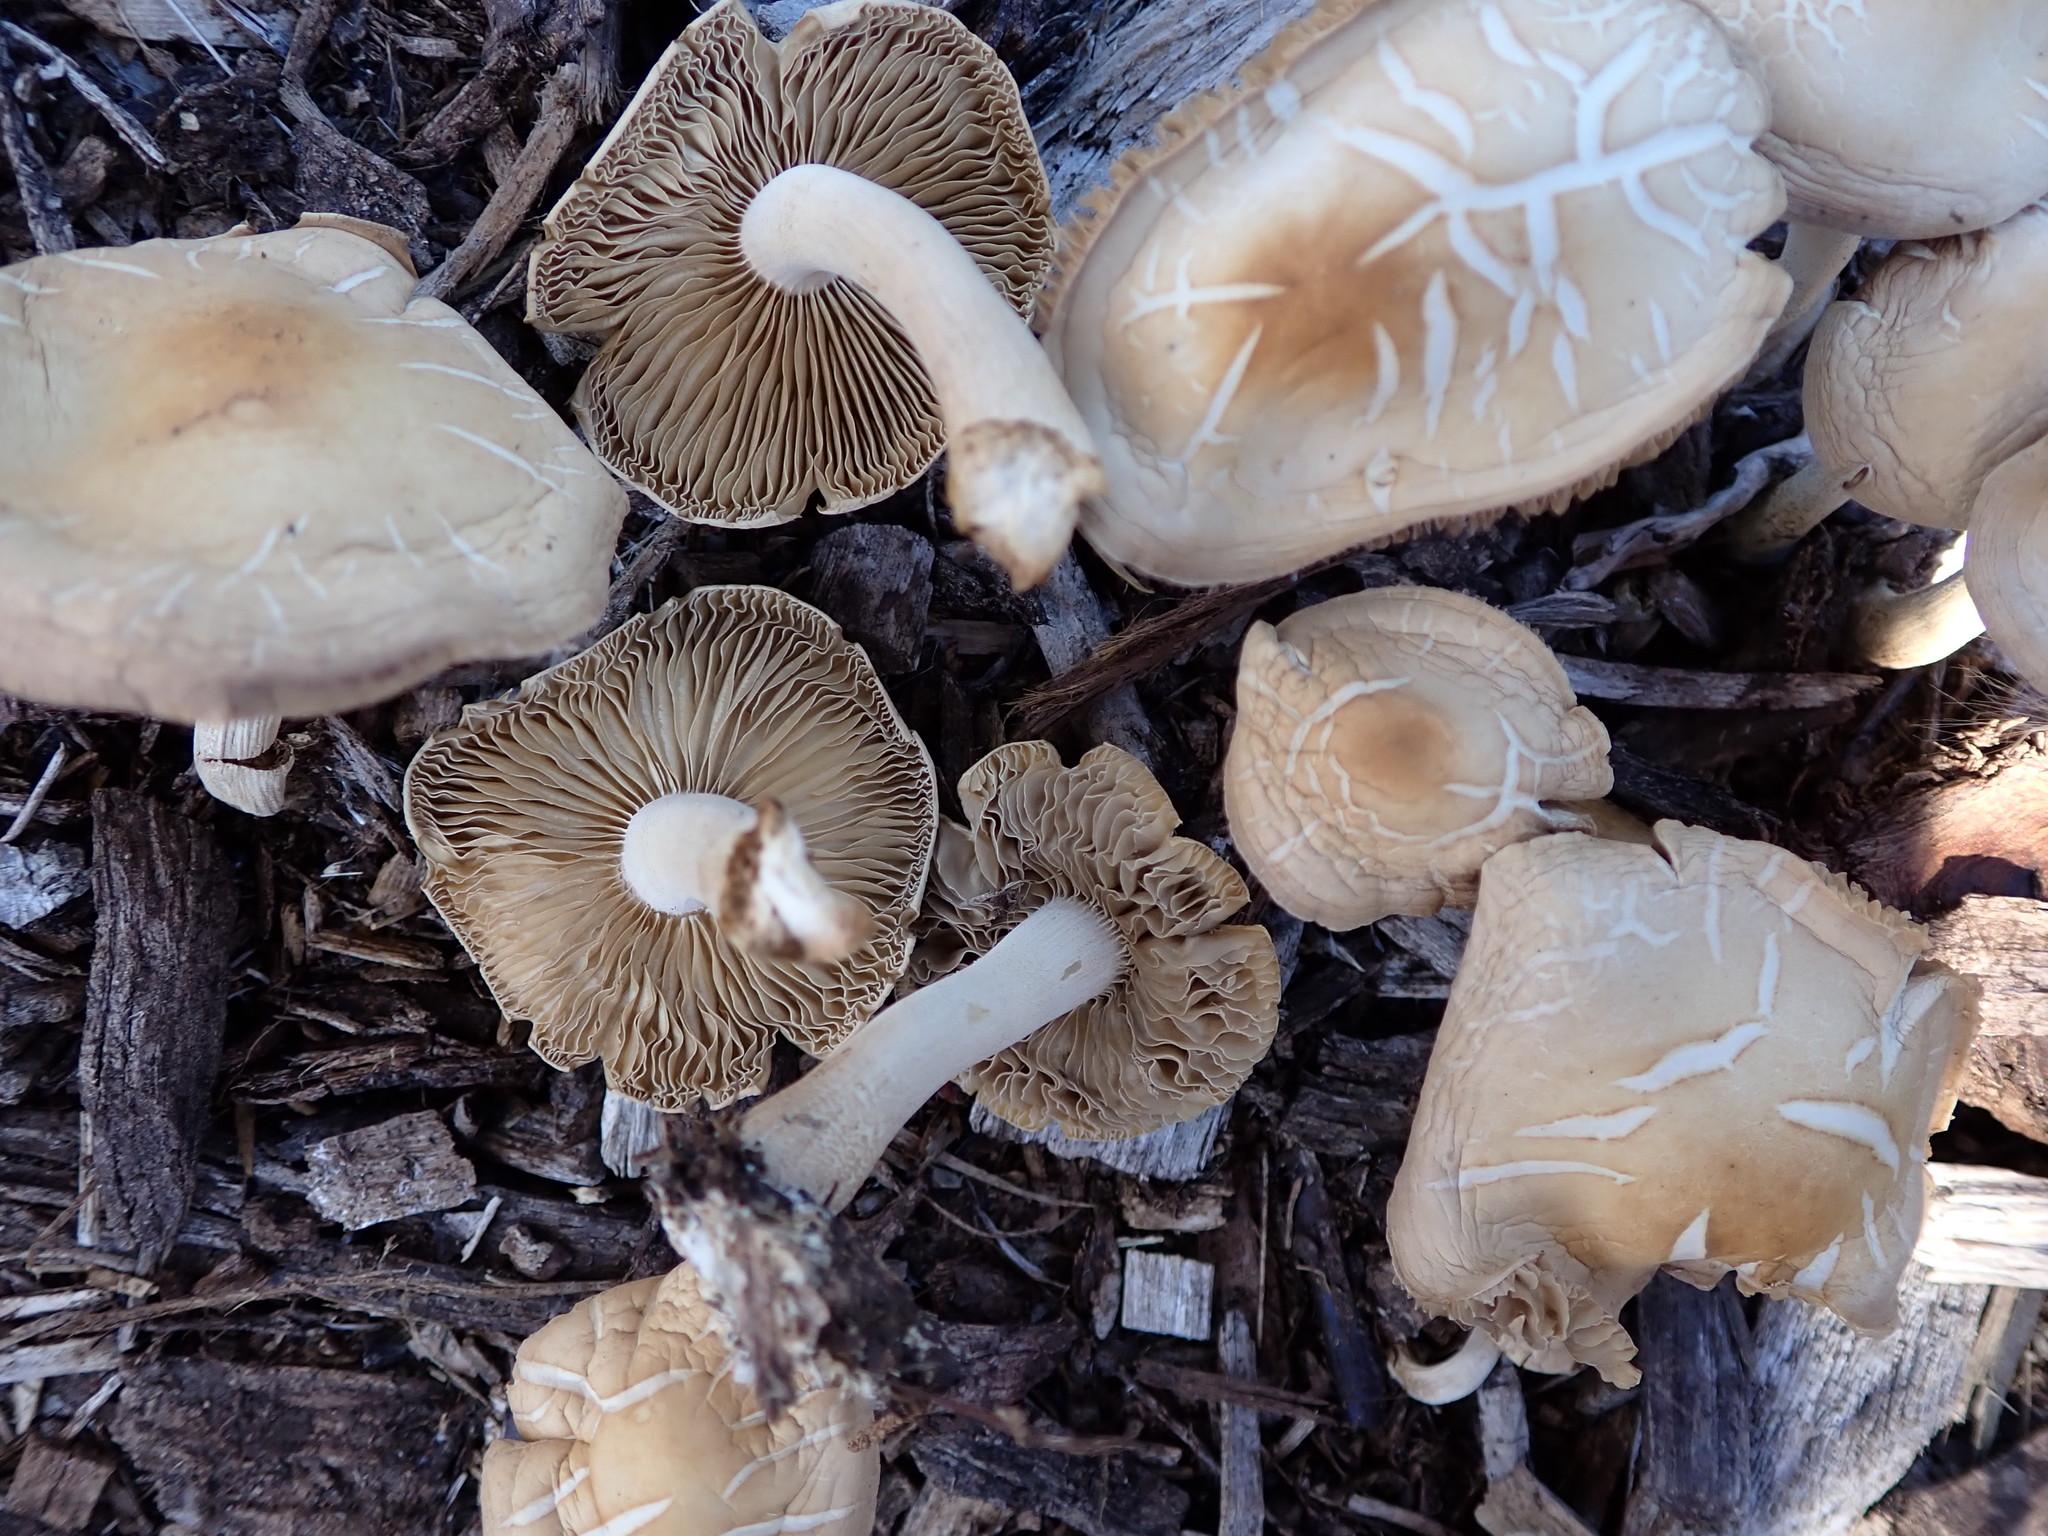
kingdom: Fungi
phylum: Basidiomycota
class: Agaricomycetes
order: Agaricales
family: Strophariaceae
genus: Agrocybe
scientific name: Agrocybe putaminum
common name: Mulch fieldcap
